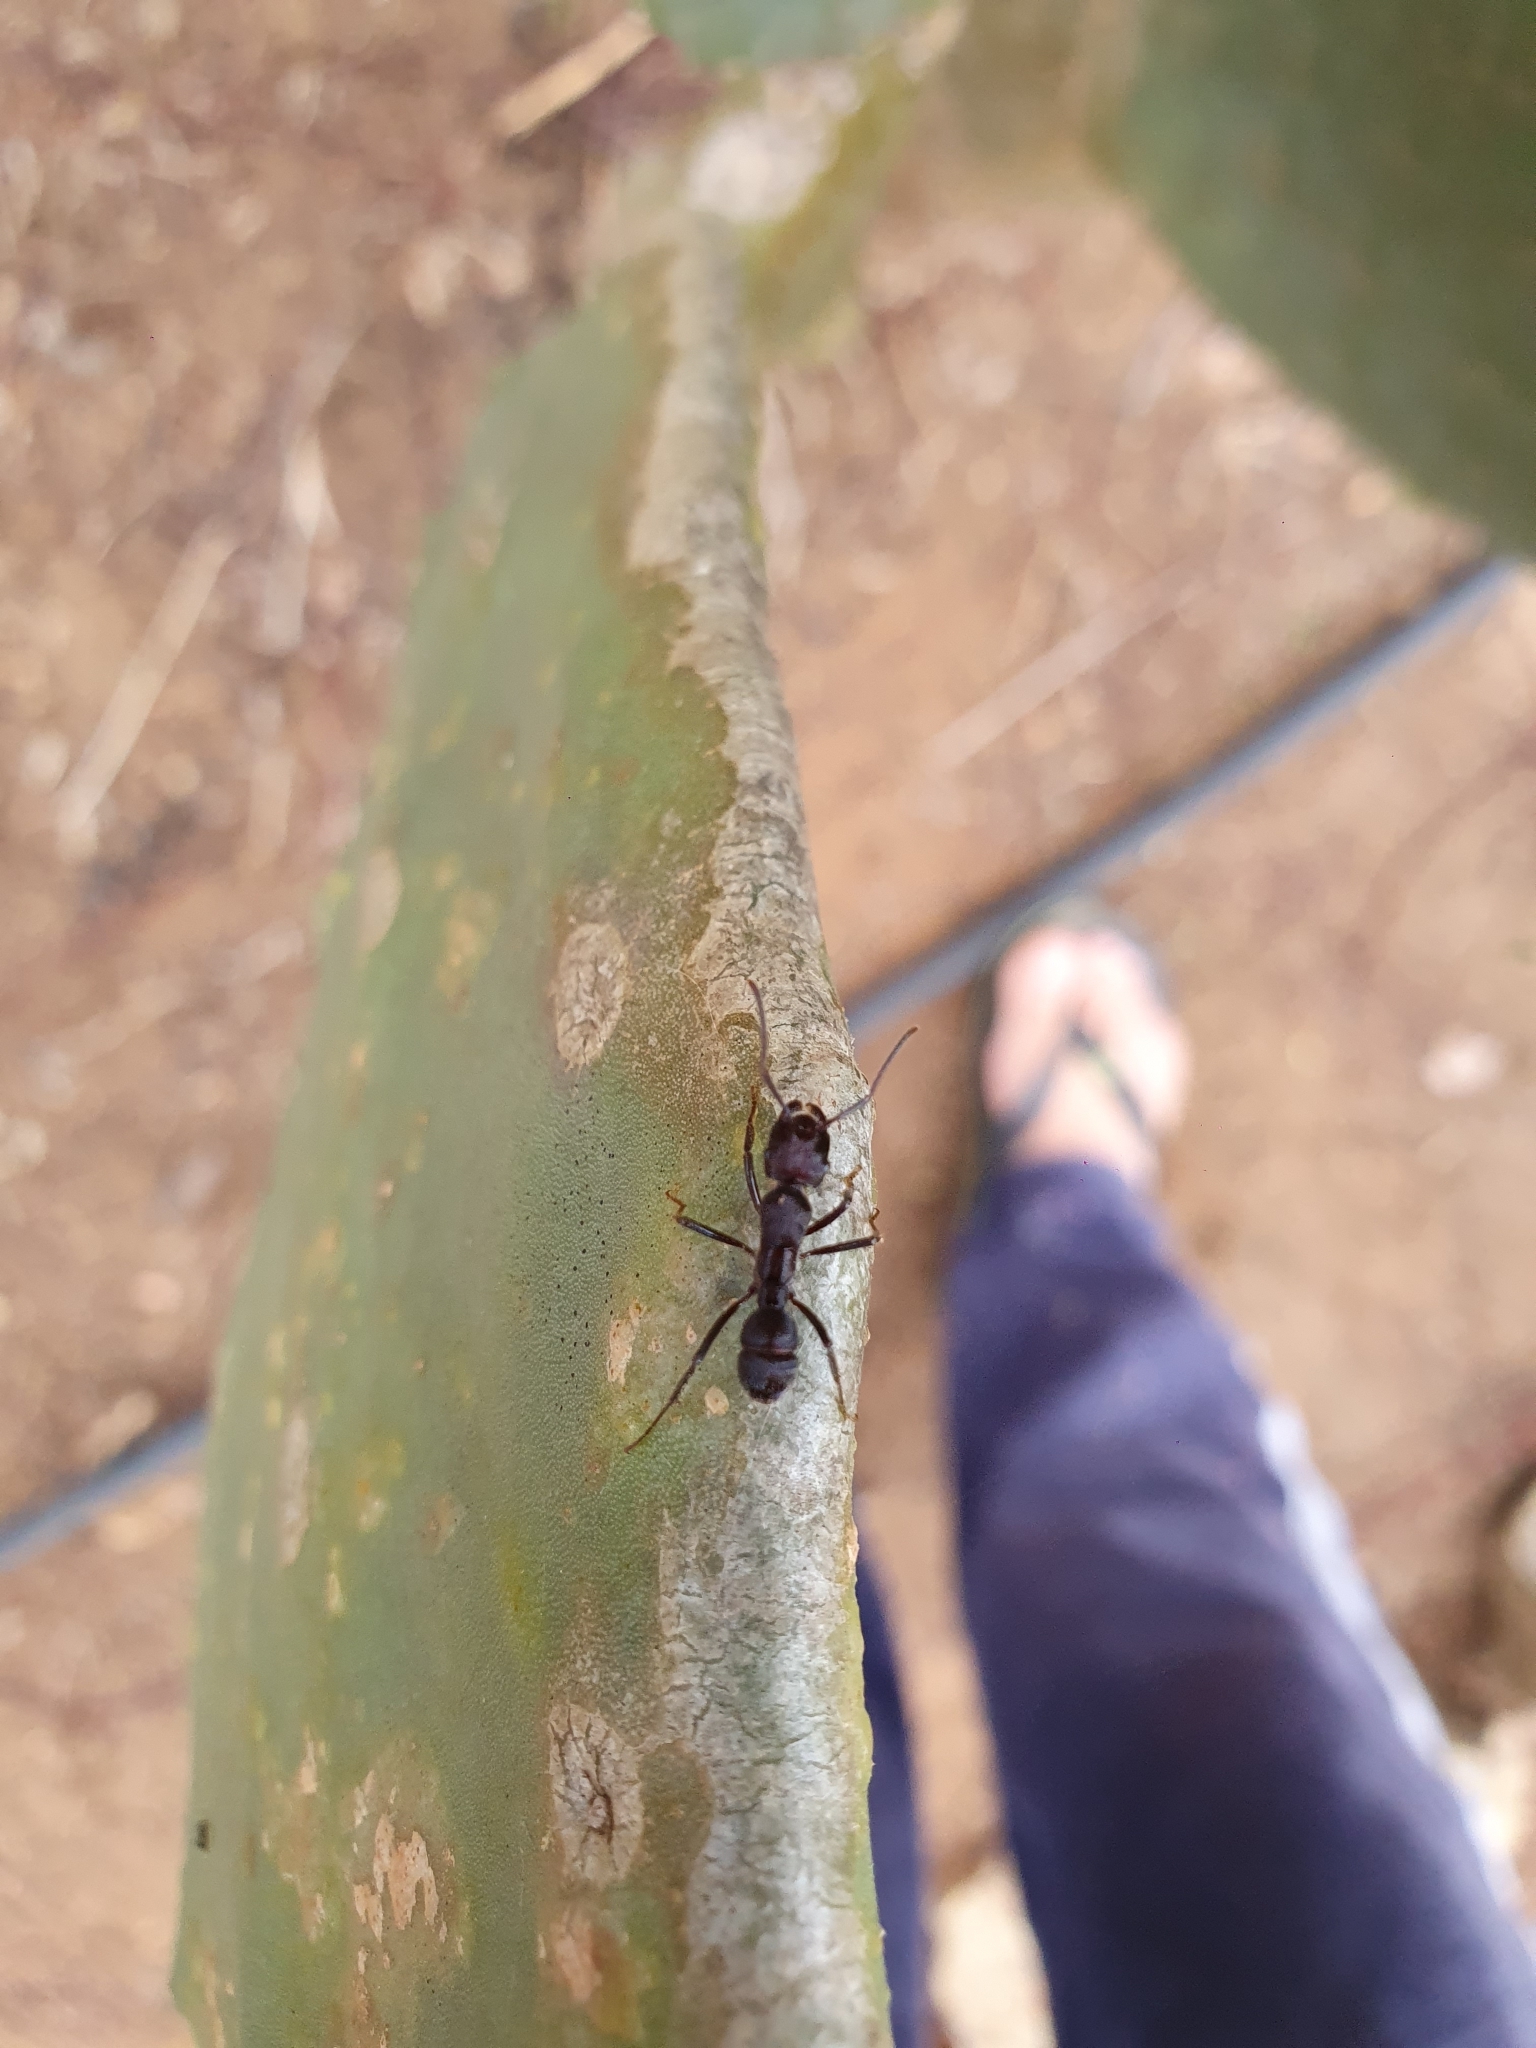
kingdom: Animalia
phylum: Arthropoda
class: Insecta
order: Hymenoptera
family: Formicidae
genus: Ectatomma
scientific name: Ectatomma brunneum
